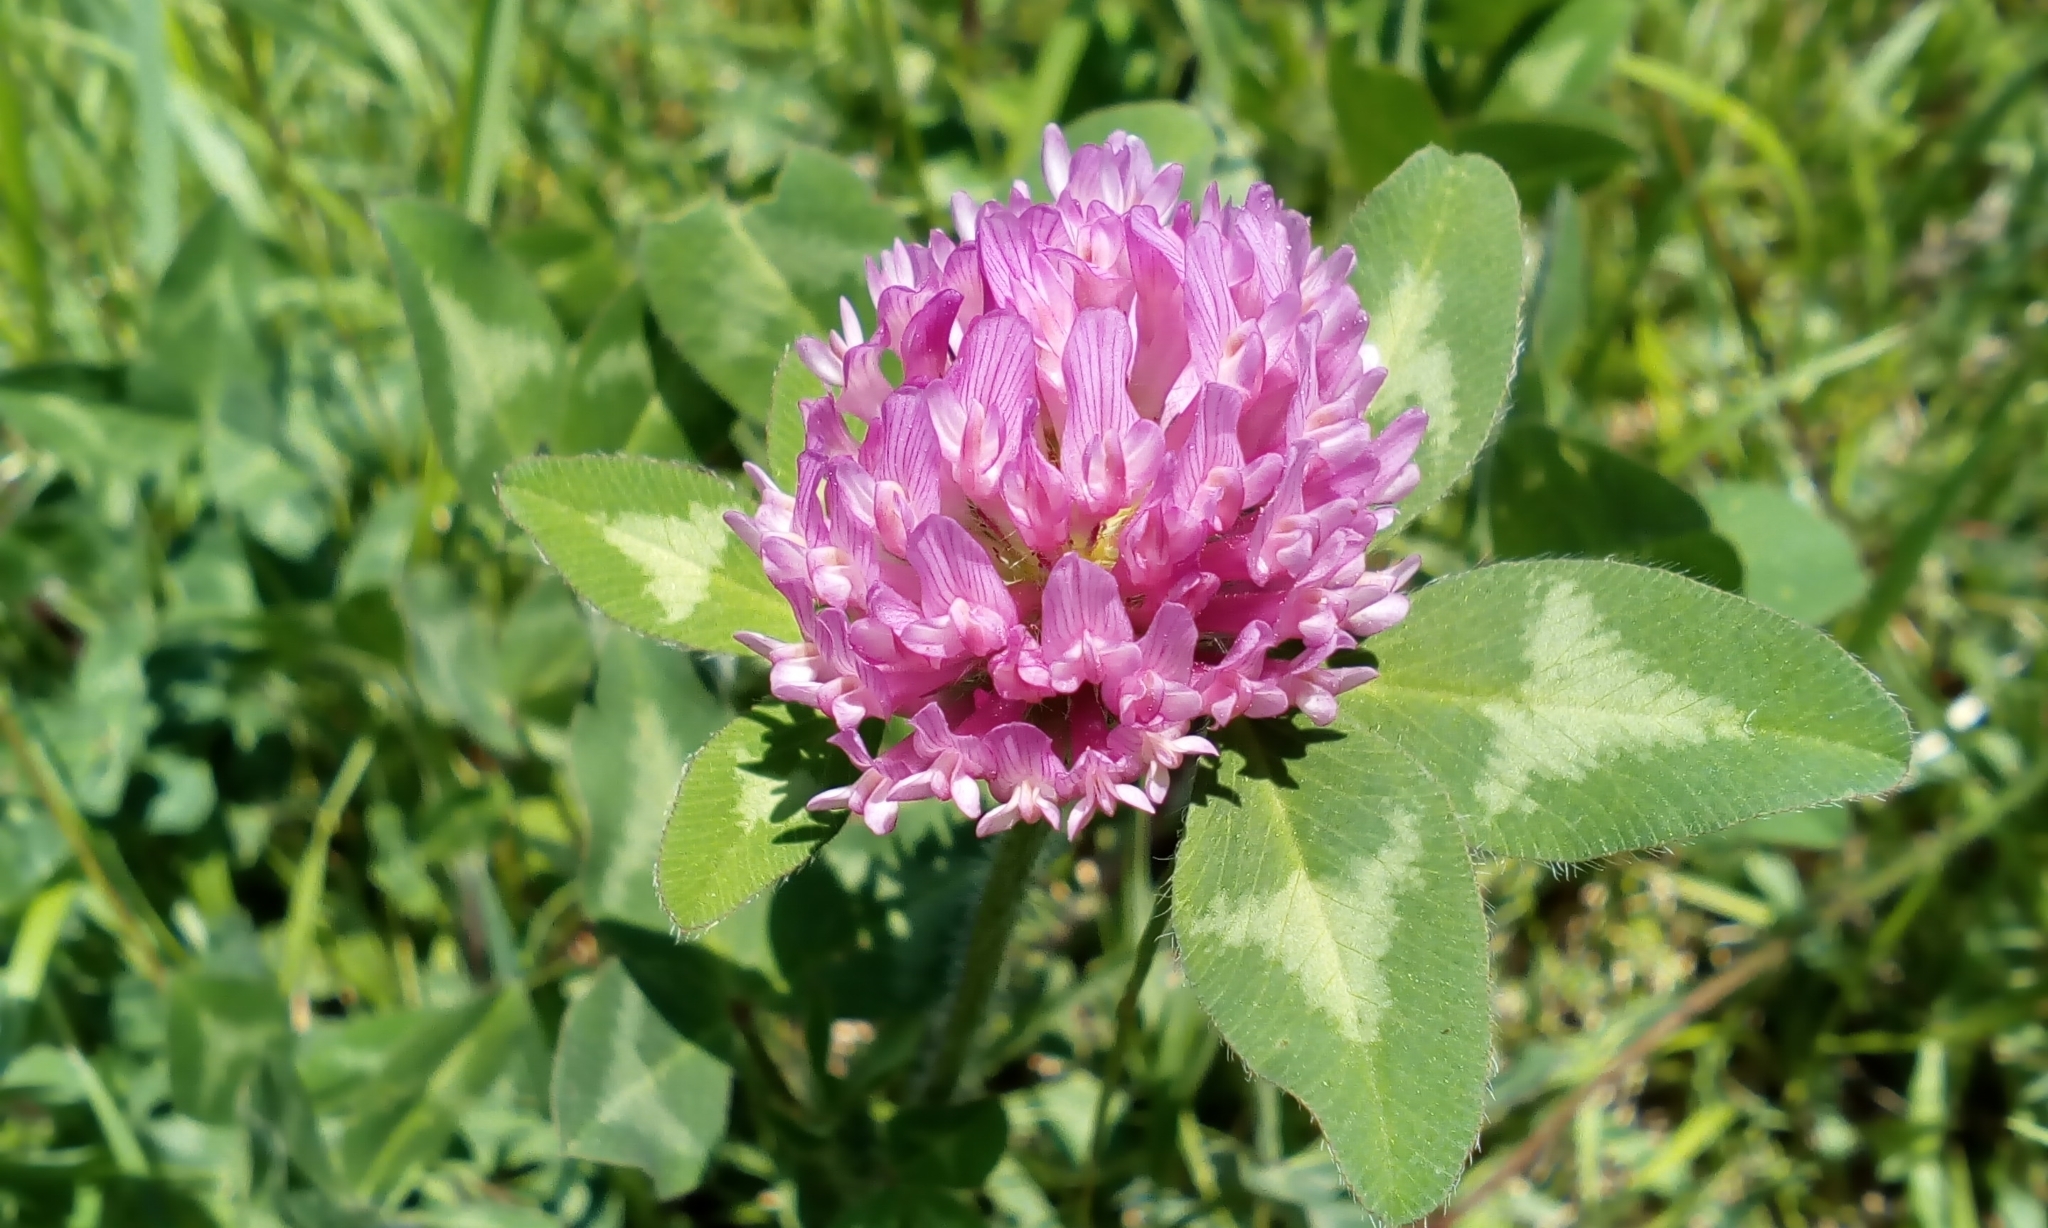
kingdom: Plantae
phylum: Tracheophyta
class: Magnoliopsida
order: Fabales
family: Fabaceae
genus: Trifolium
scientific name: Trifolium pratense
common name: Red clover
